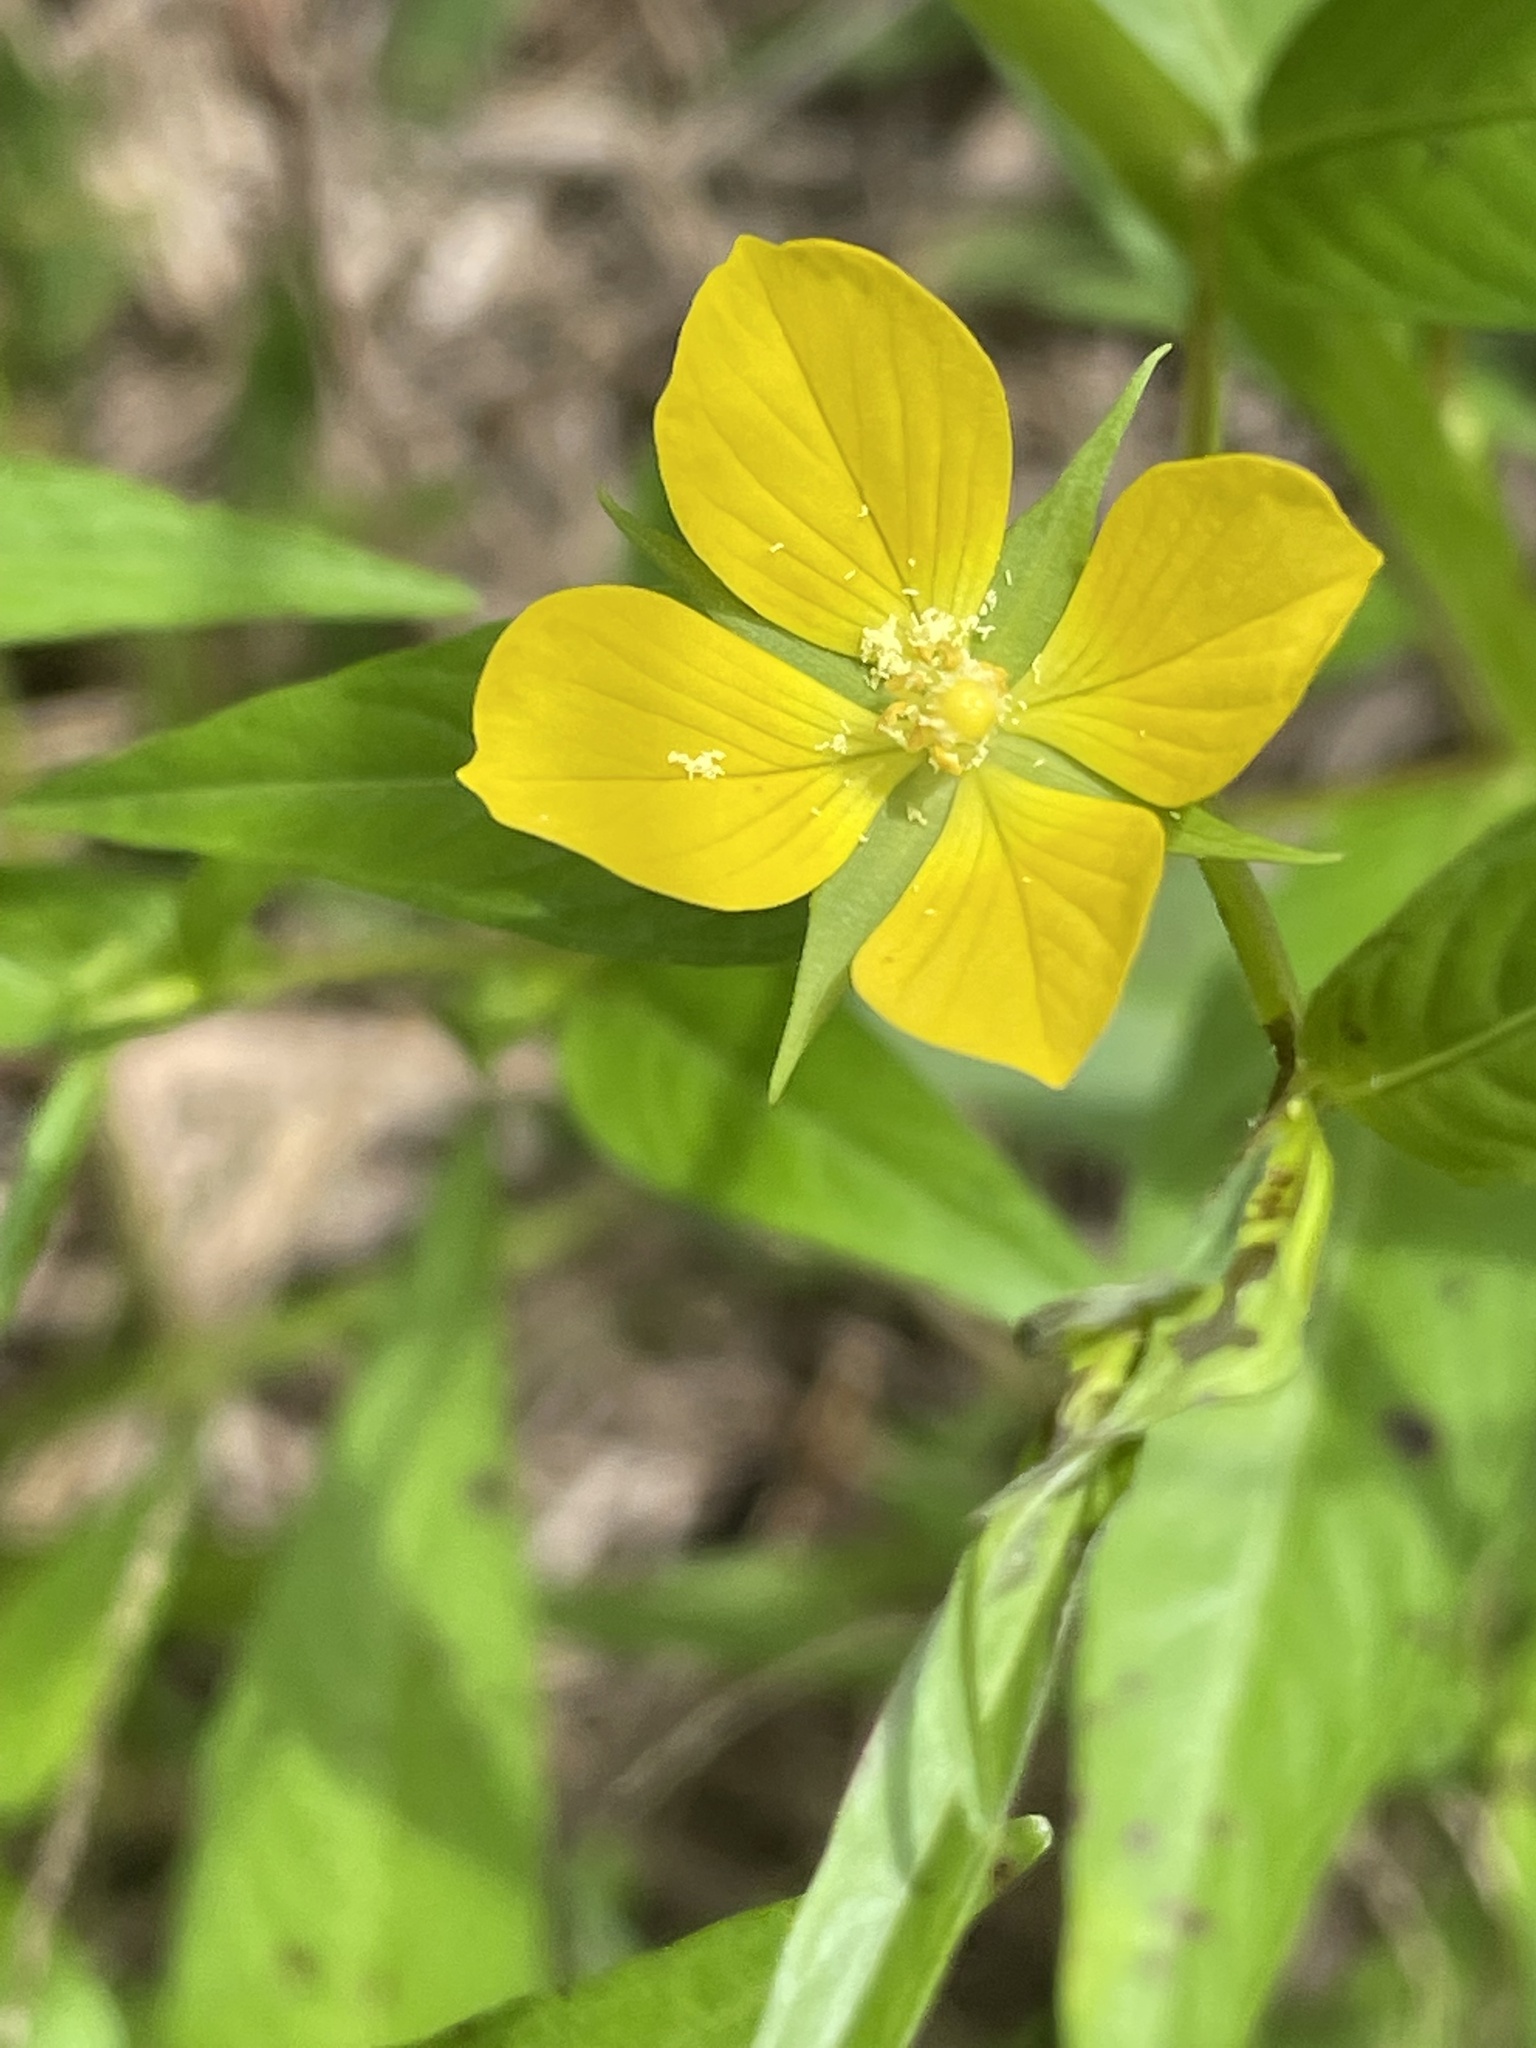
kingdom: Plantae
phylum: Tracheophyta
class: Magnoliopsida
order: Myrtales
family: Onagraceae
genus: Ludwigia
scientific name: Ludwigia decurrens
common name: Winged water-primrose
